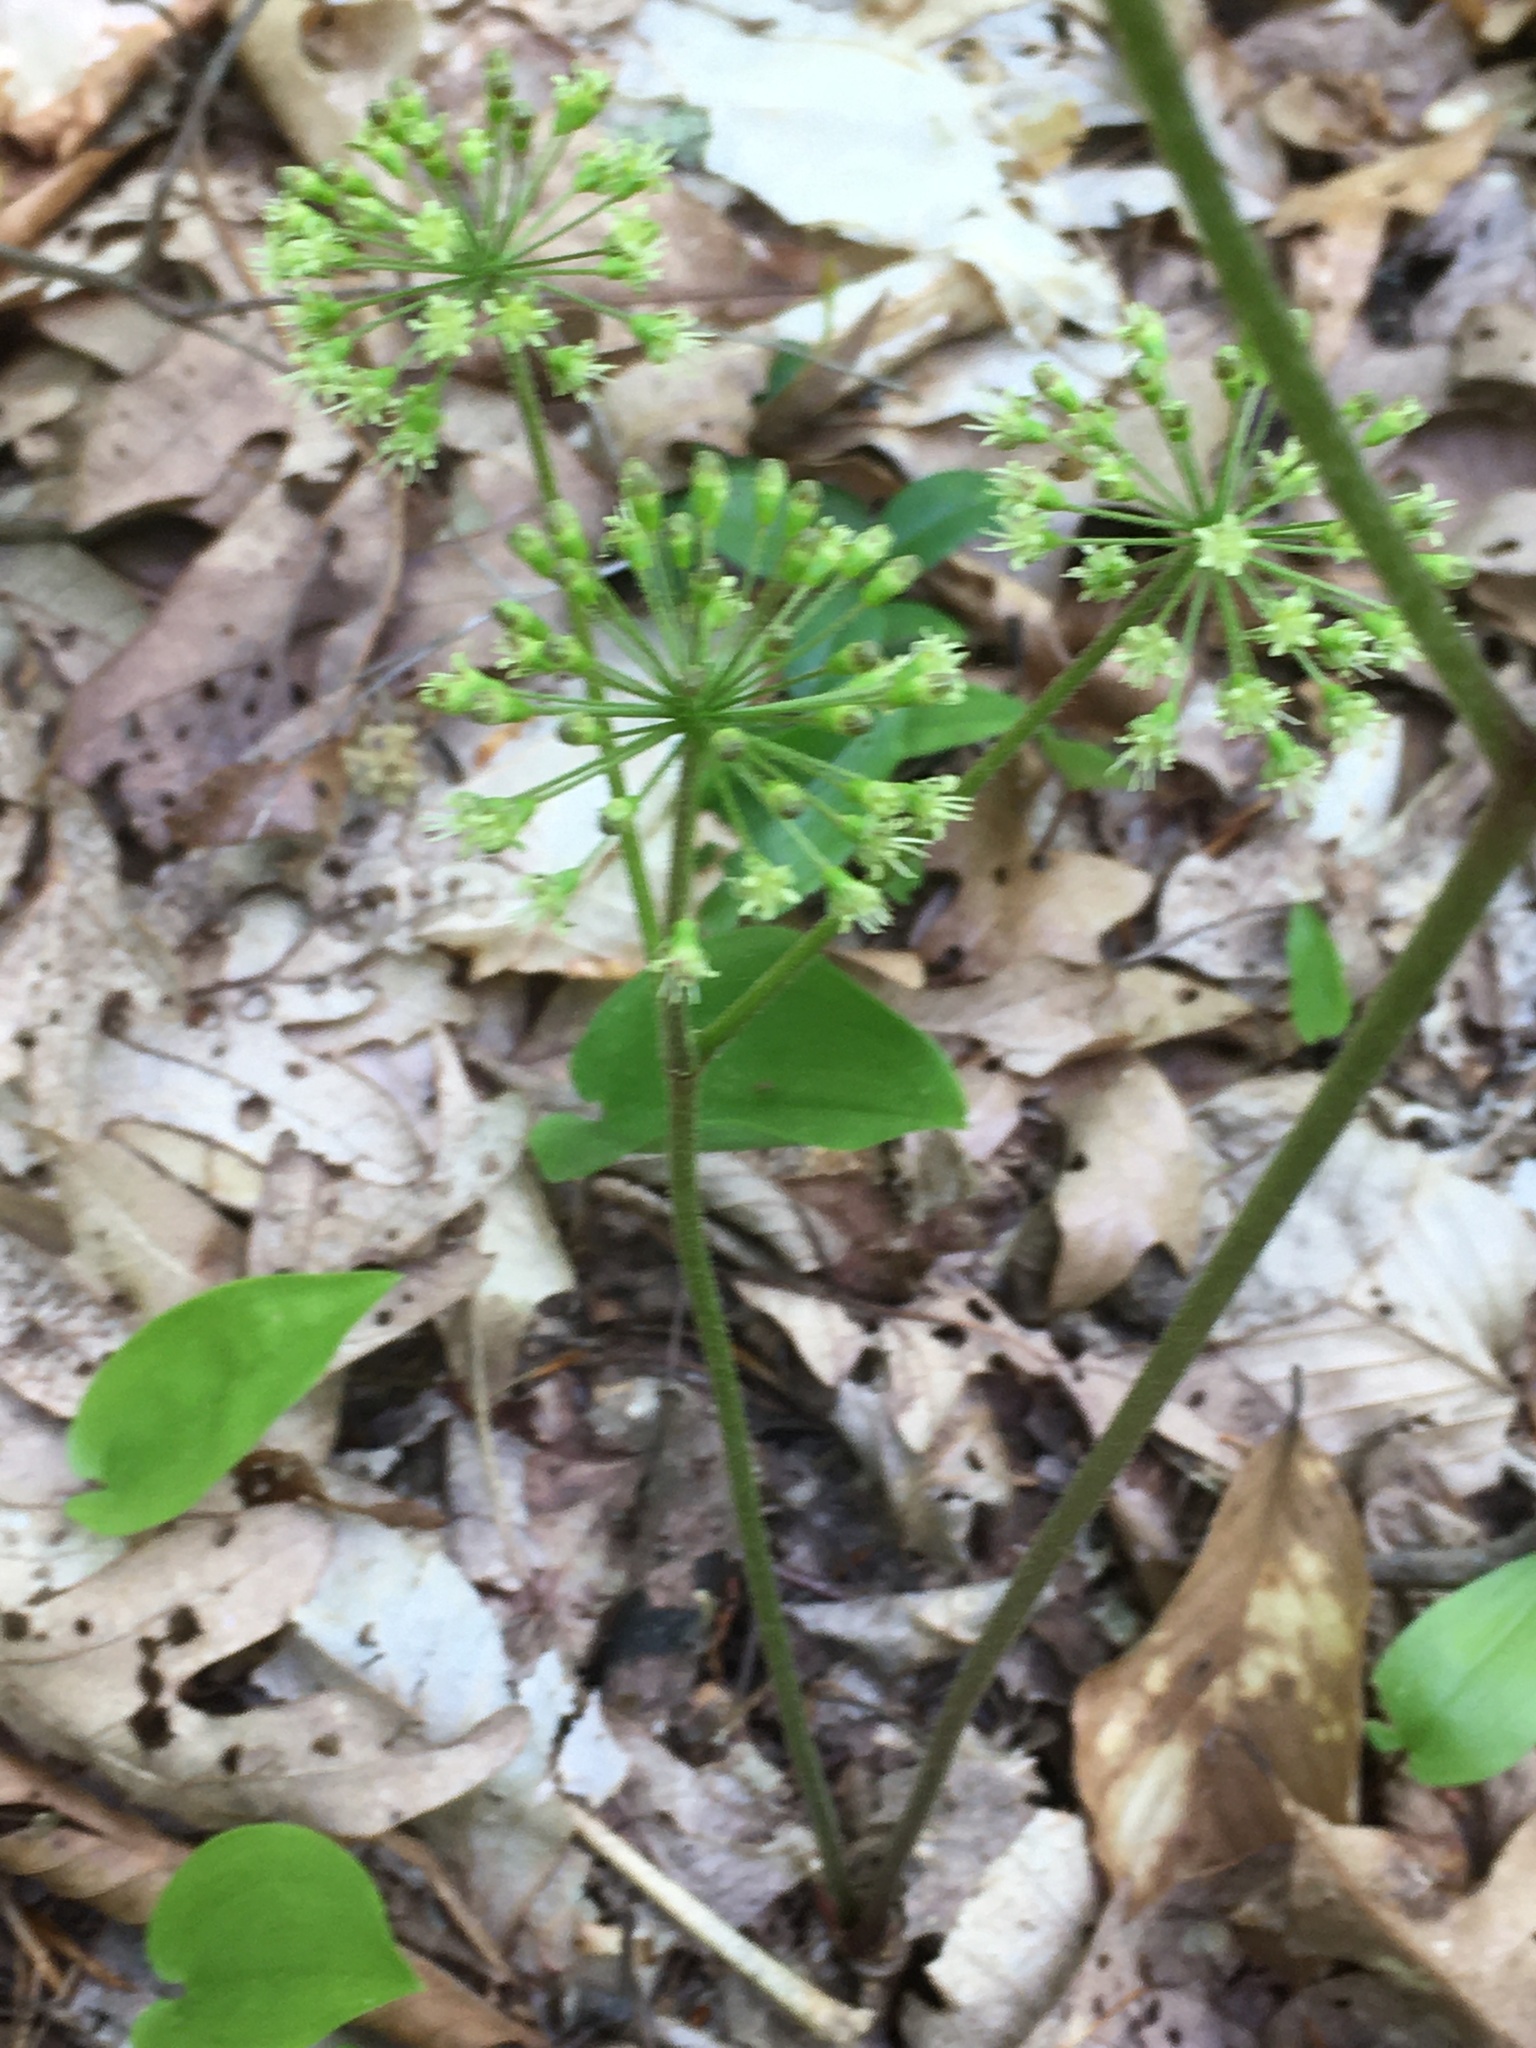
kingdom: Plantae
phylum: Tracheophyta
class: Magnoliopsida
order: Apiales
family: Araliaceae
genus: Aralia
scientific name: Aralia nudicaulis
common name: Wild sarsaparilla
